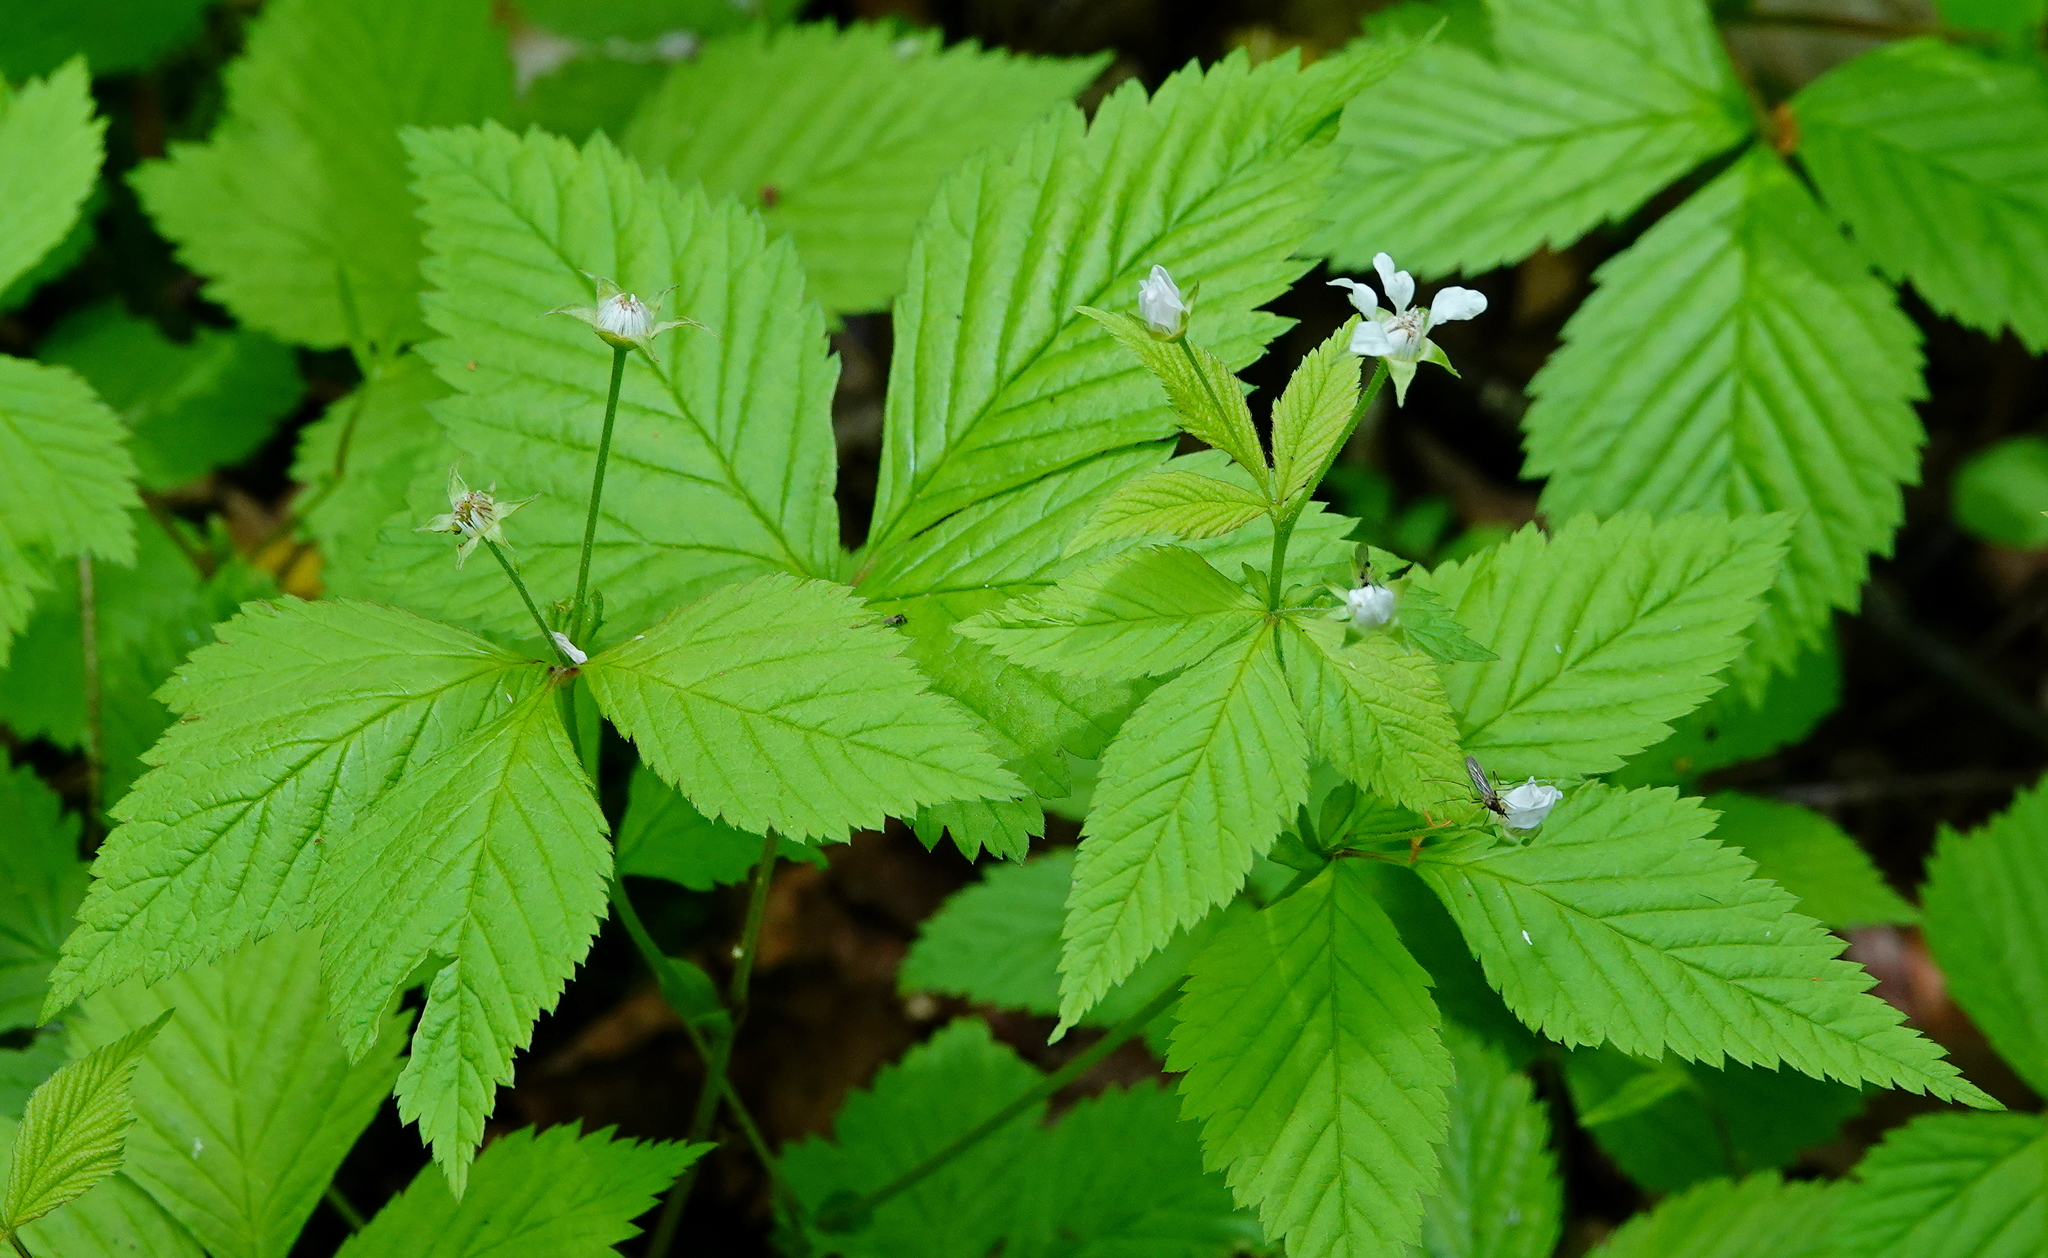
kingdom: Plantae
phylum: Tracheophyta
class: Magnoliopsida
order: Rosales
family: Rosaceae
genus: Rubus
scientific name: Rubus pubescens
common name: Dwarf raspberry
